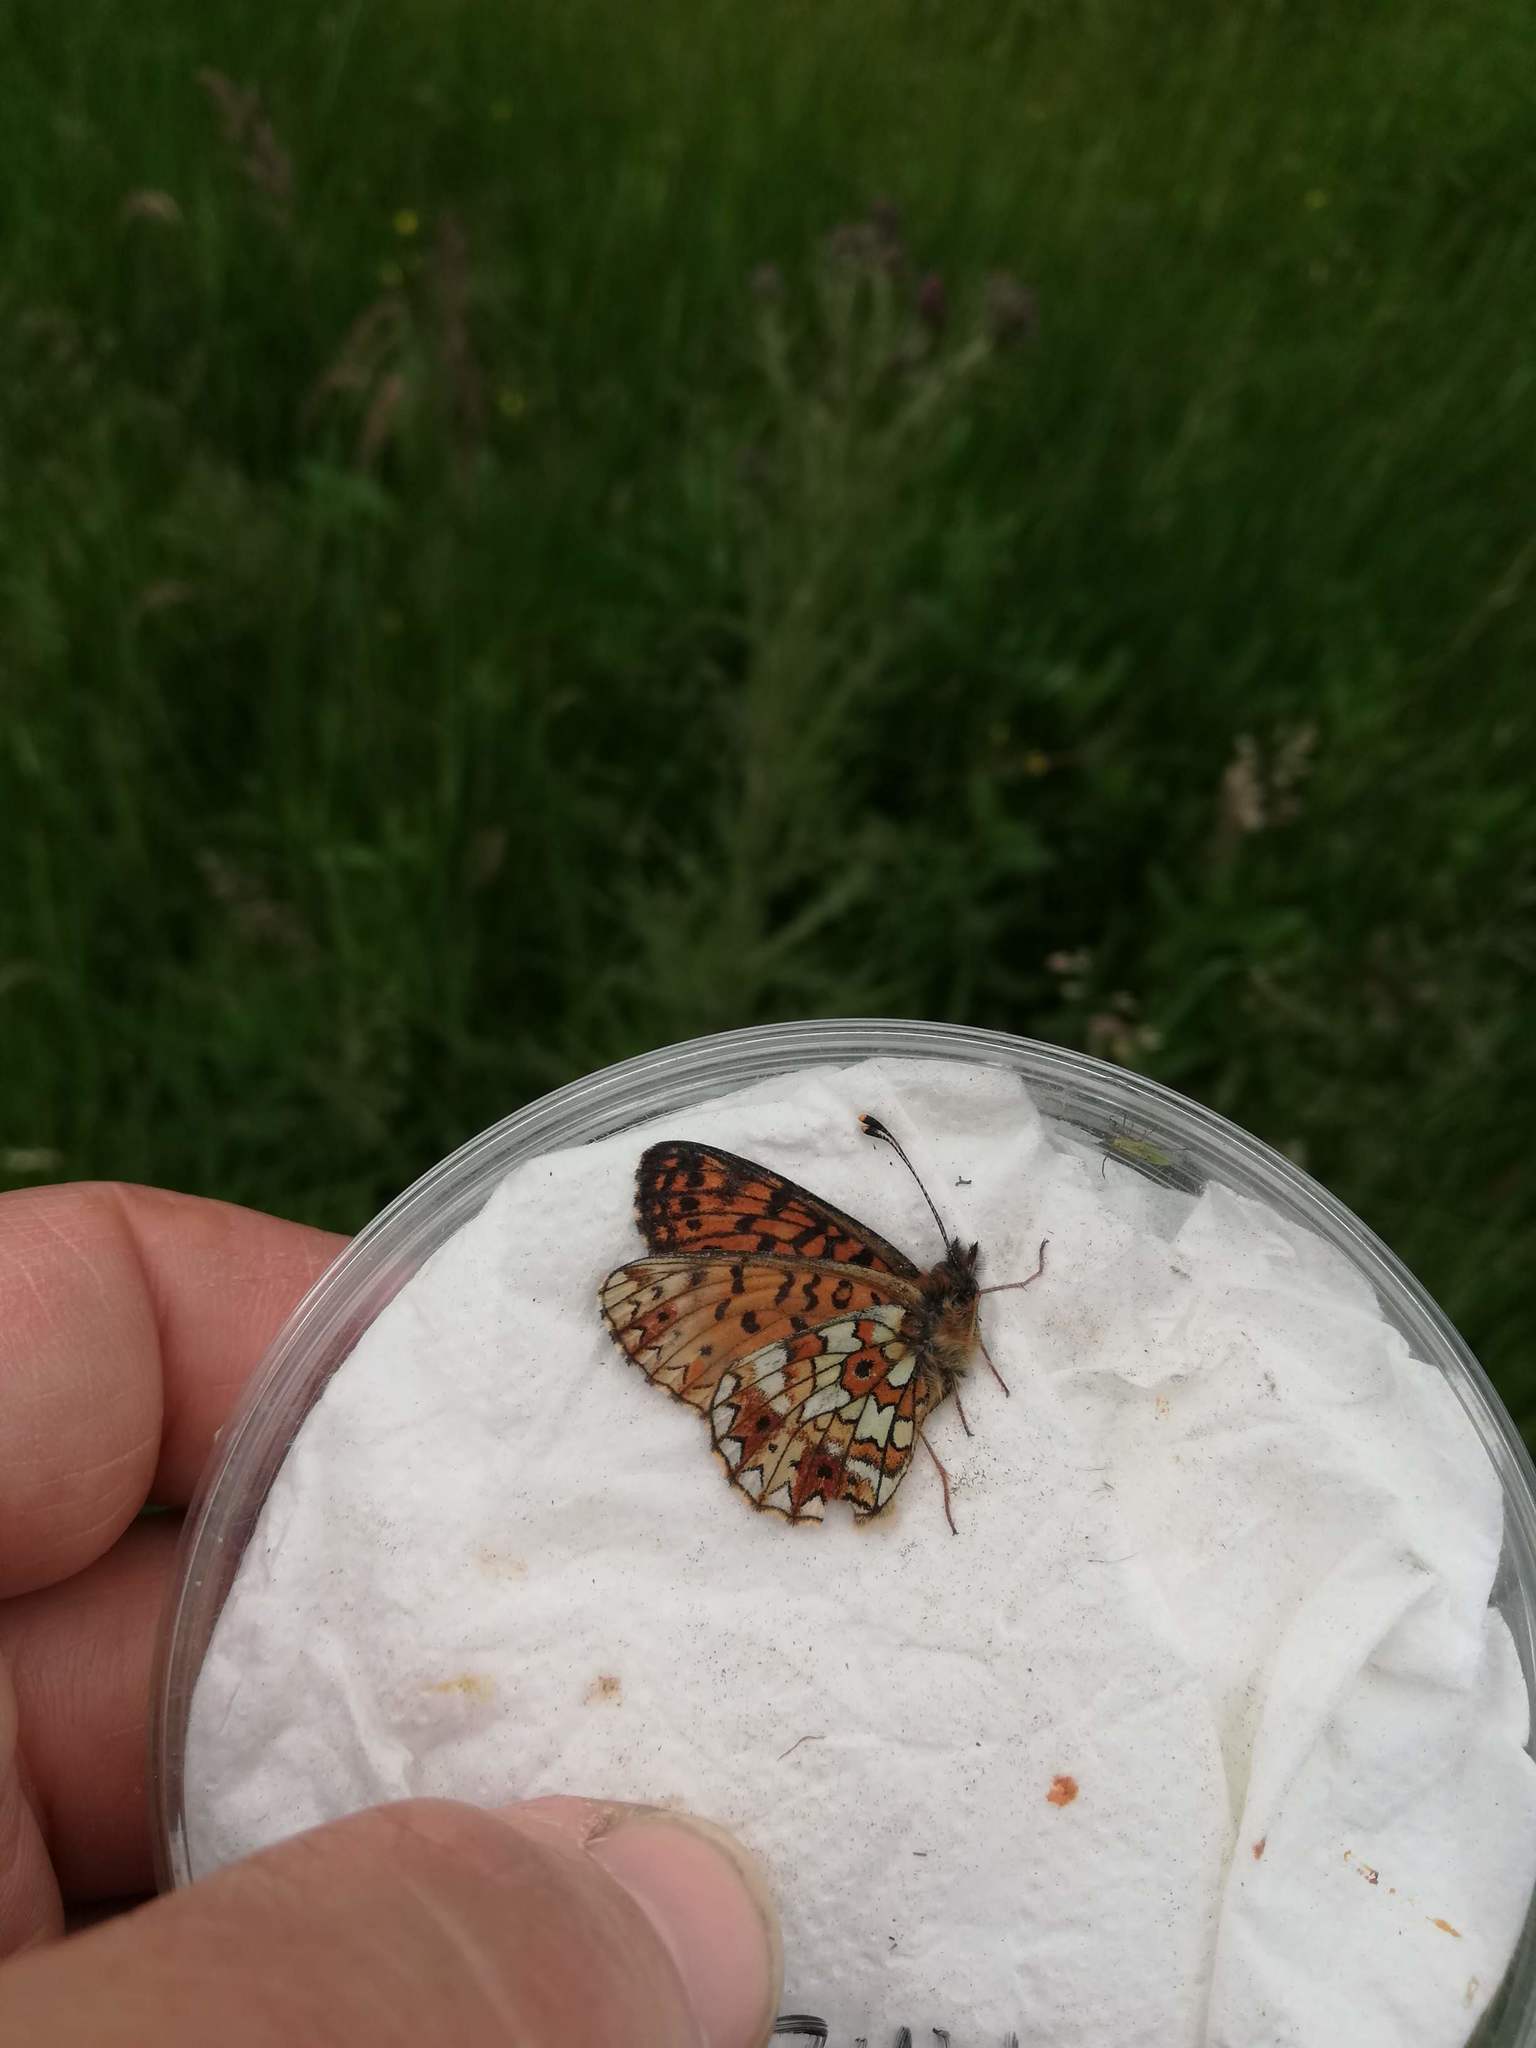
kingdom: Animalia
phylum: Arthropoda
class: Insecta
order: Lepidoptera
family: Nymphalidae
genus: Boloria
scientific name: Boloria selene
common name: Small pearl-bordered fritillary
